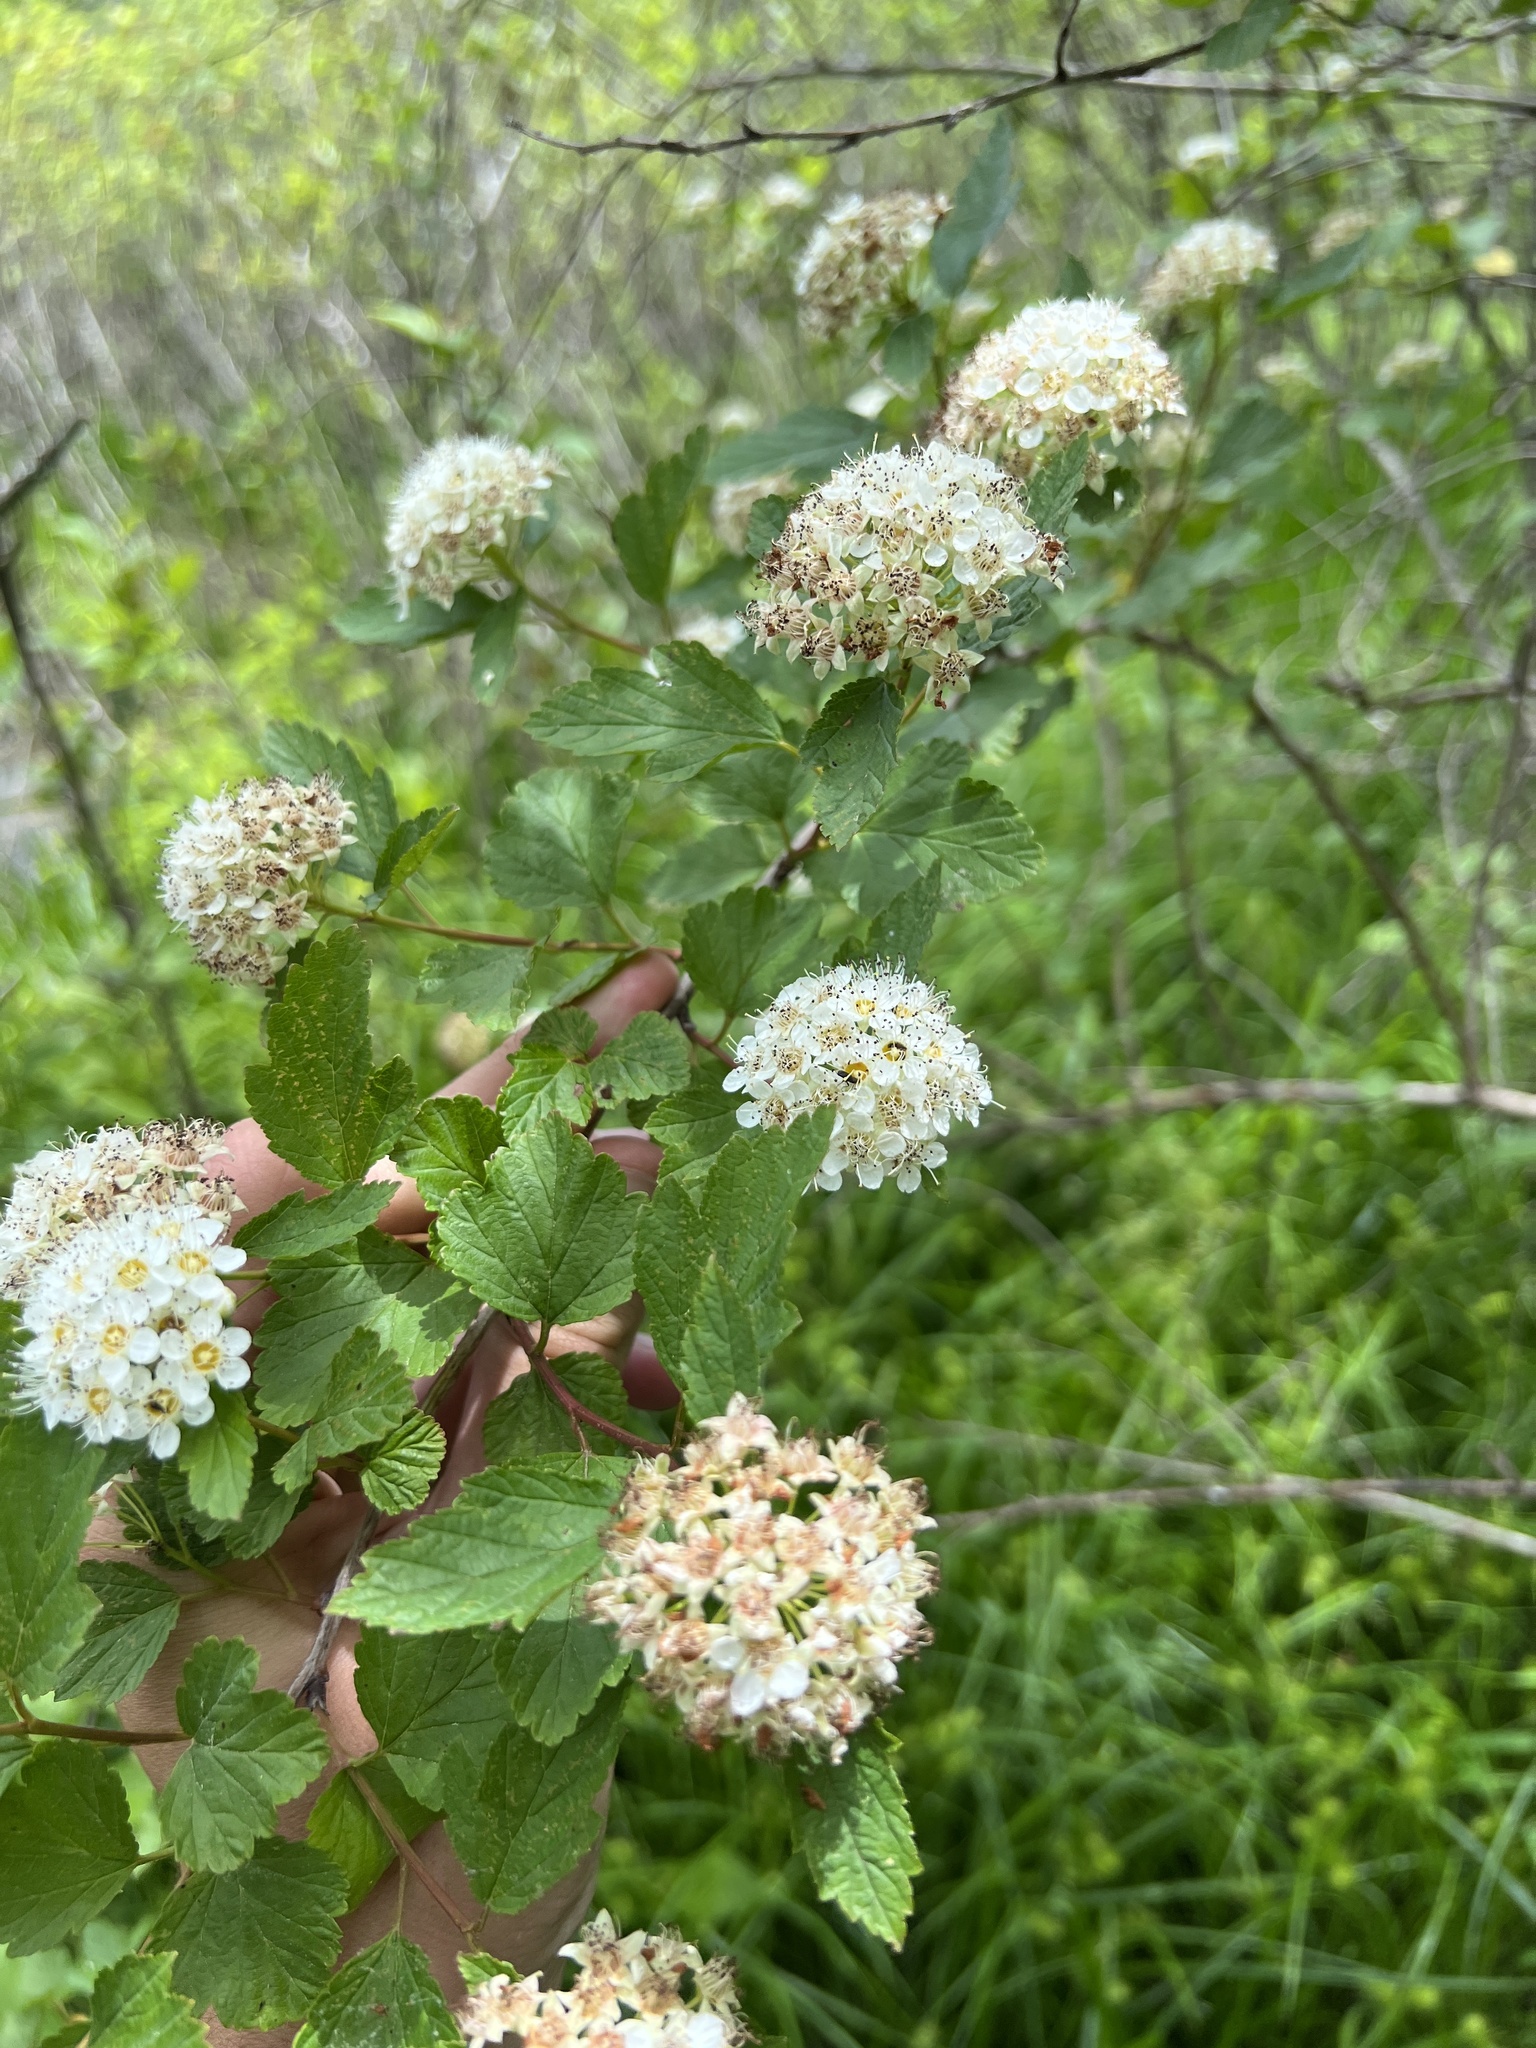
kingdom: Plantae
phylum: Tracheophyta
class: Magnoliopsida
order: Rosales
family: Rosaceae
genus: Physocarpus
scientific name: Physocarpus opulifolius
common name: Ninebark
